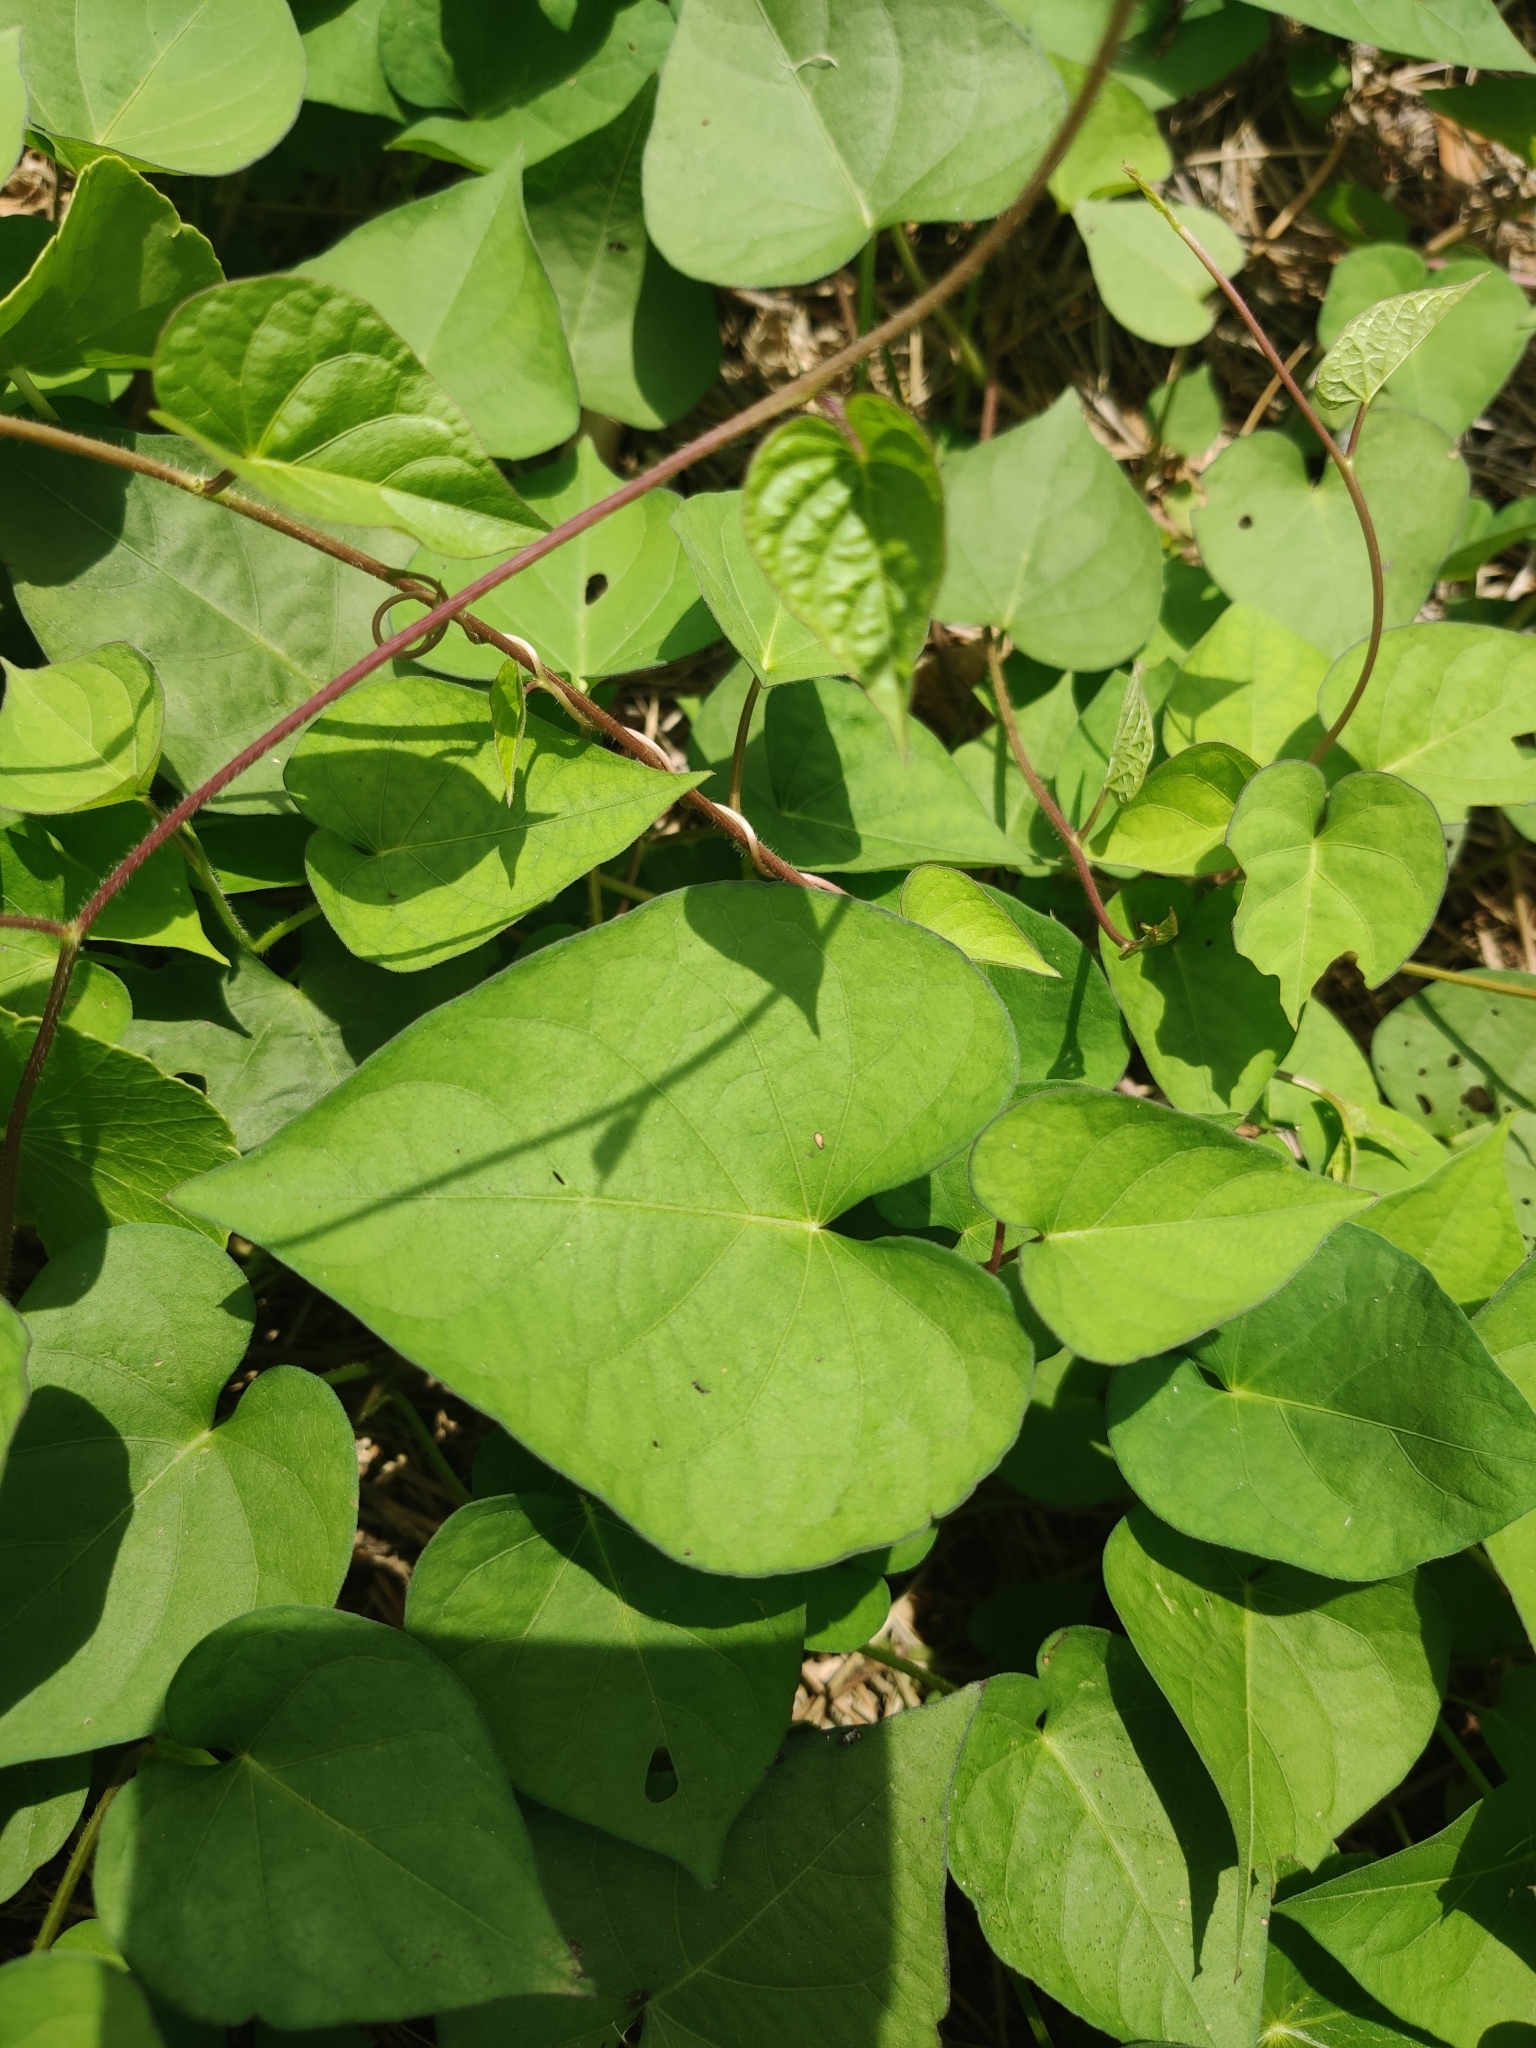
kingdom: Plantae
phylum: Tracheophyta
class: Magnoliopsida
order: Solanales
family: Convolvulaceae
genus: Ipomoea
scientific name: Ipomoea pandurata
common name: Man-of-the-earth
